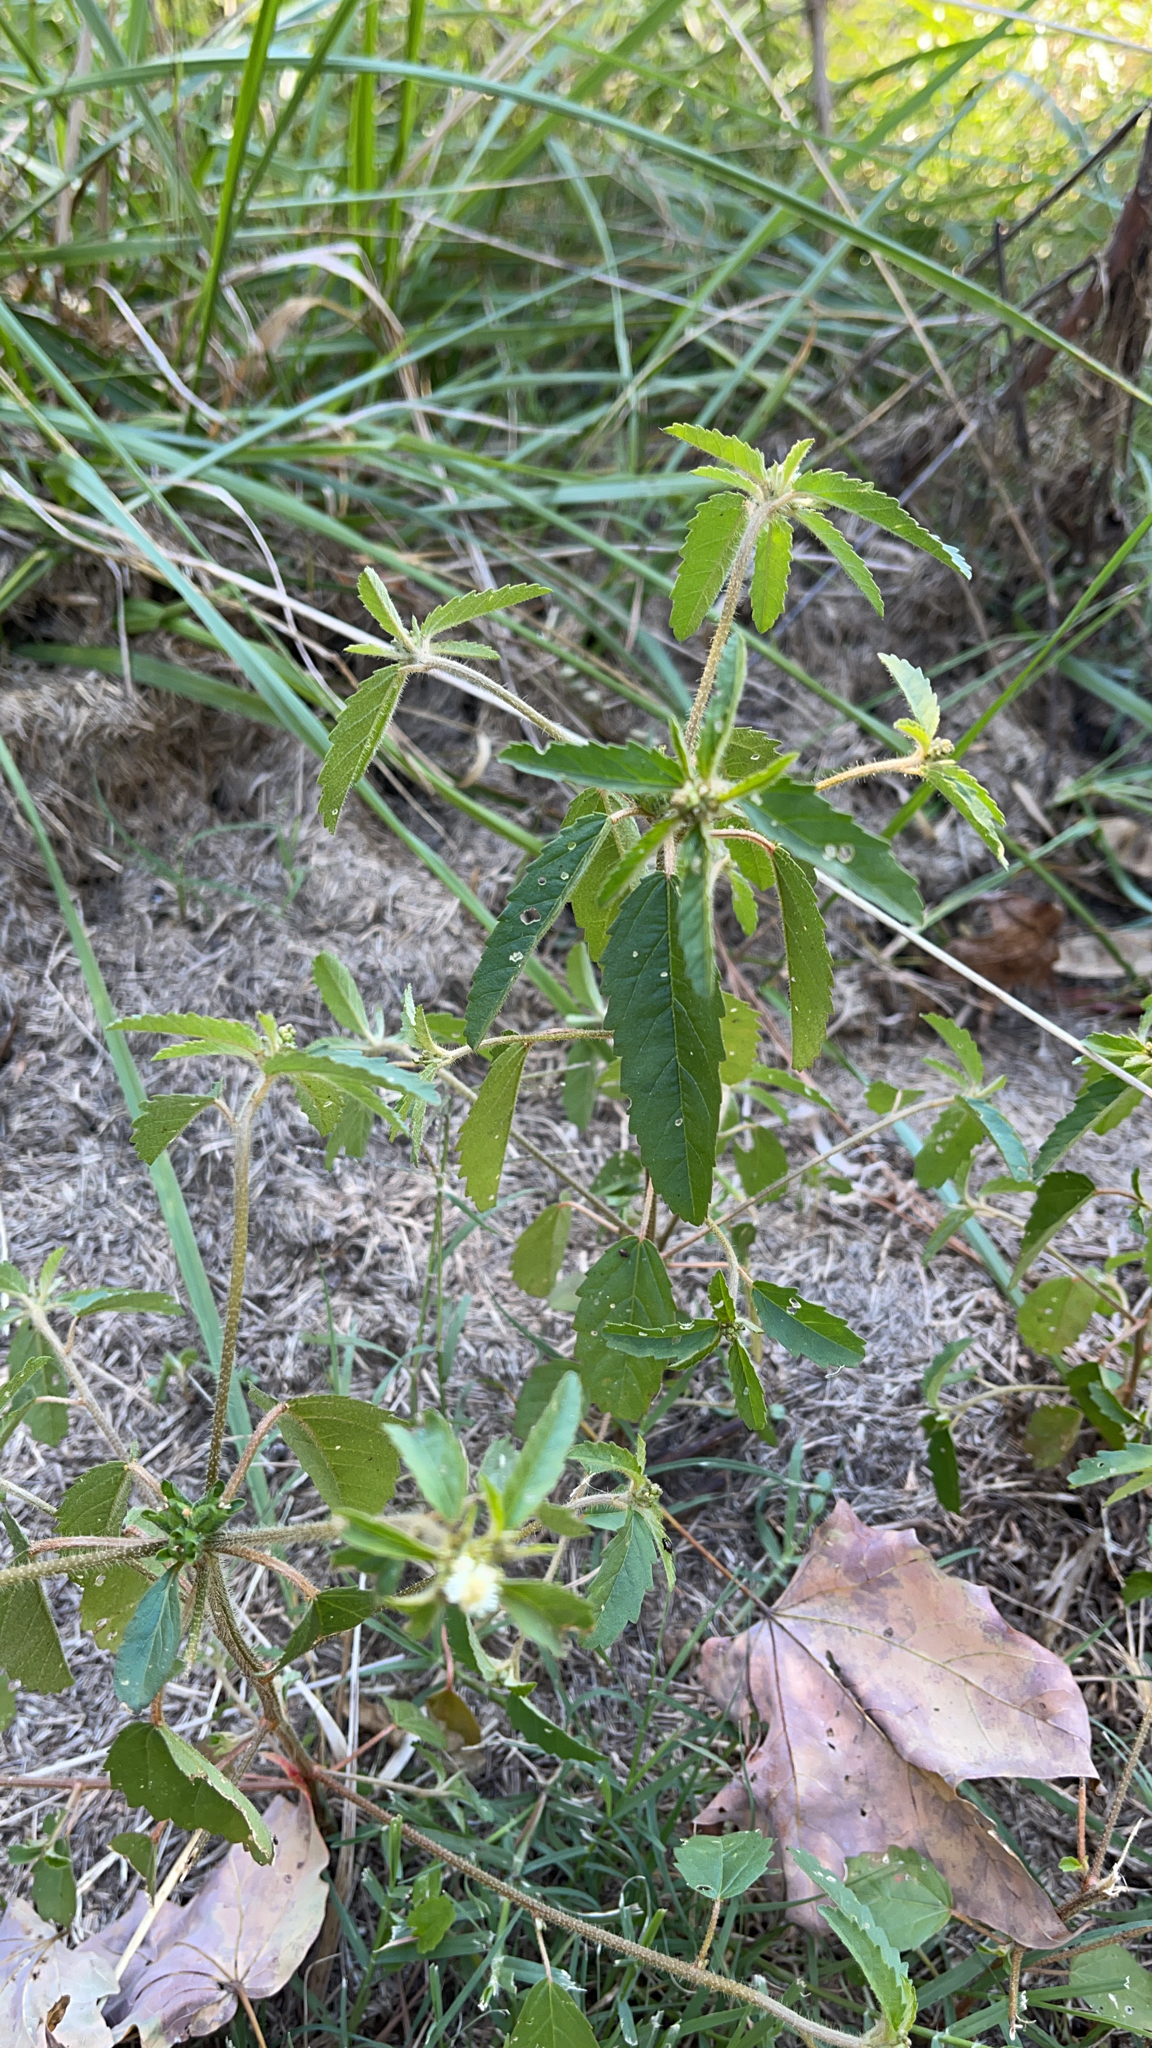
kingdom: Plantae
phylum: Tracheophyta
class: Magnoliopsida
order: Malpighiales
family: Euphorbiaceae
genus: Croton
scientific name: Croton glandulosus
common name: Tropic croton
